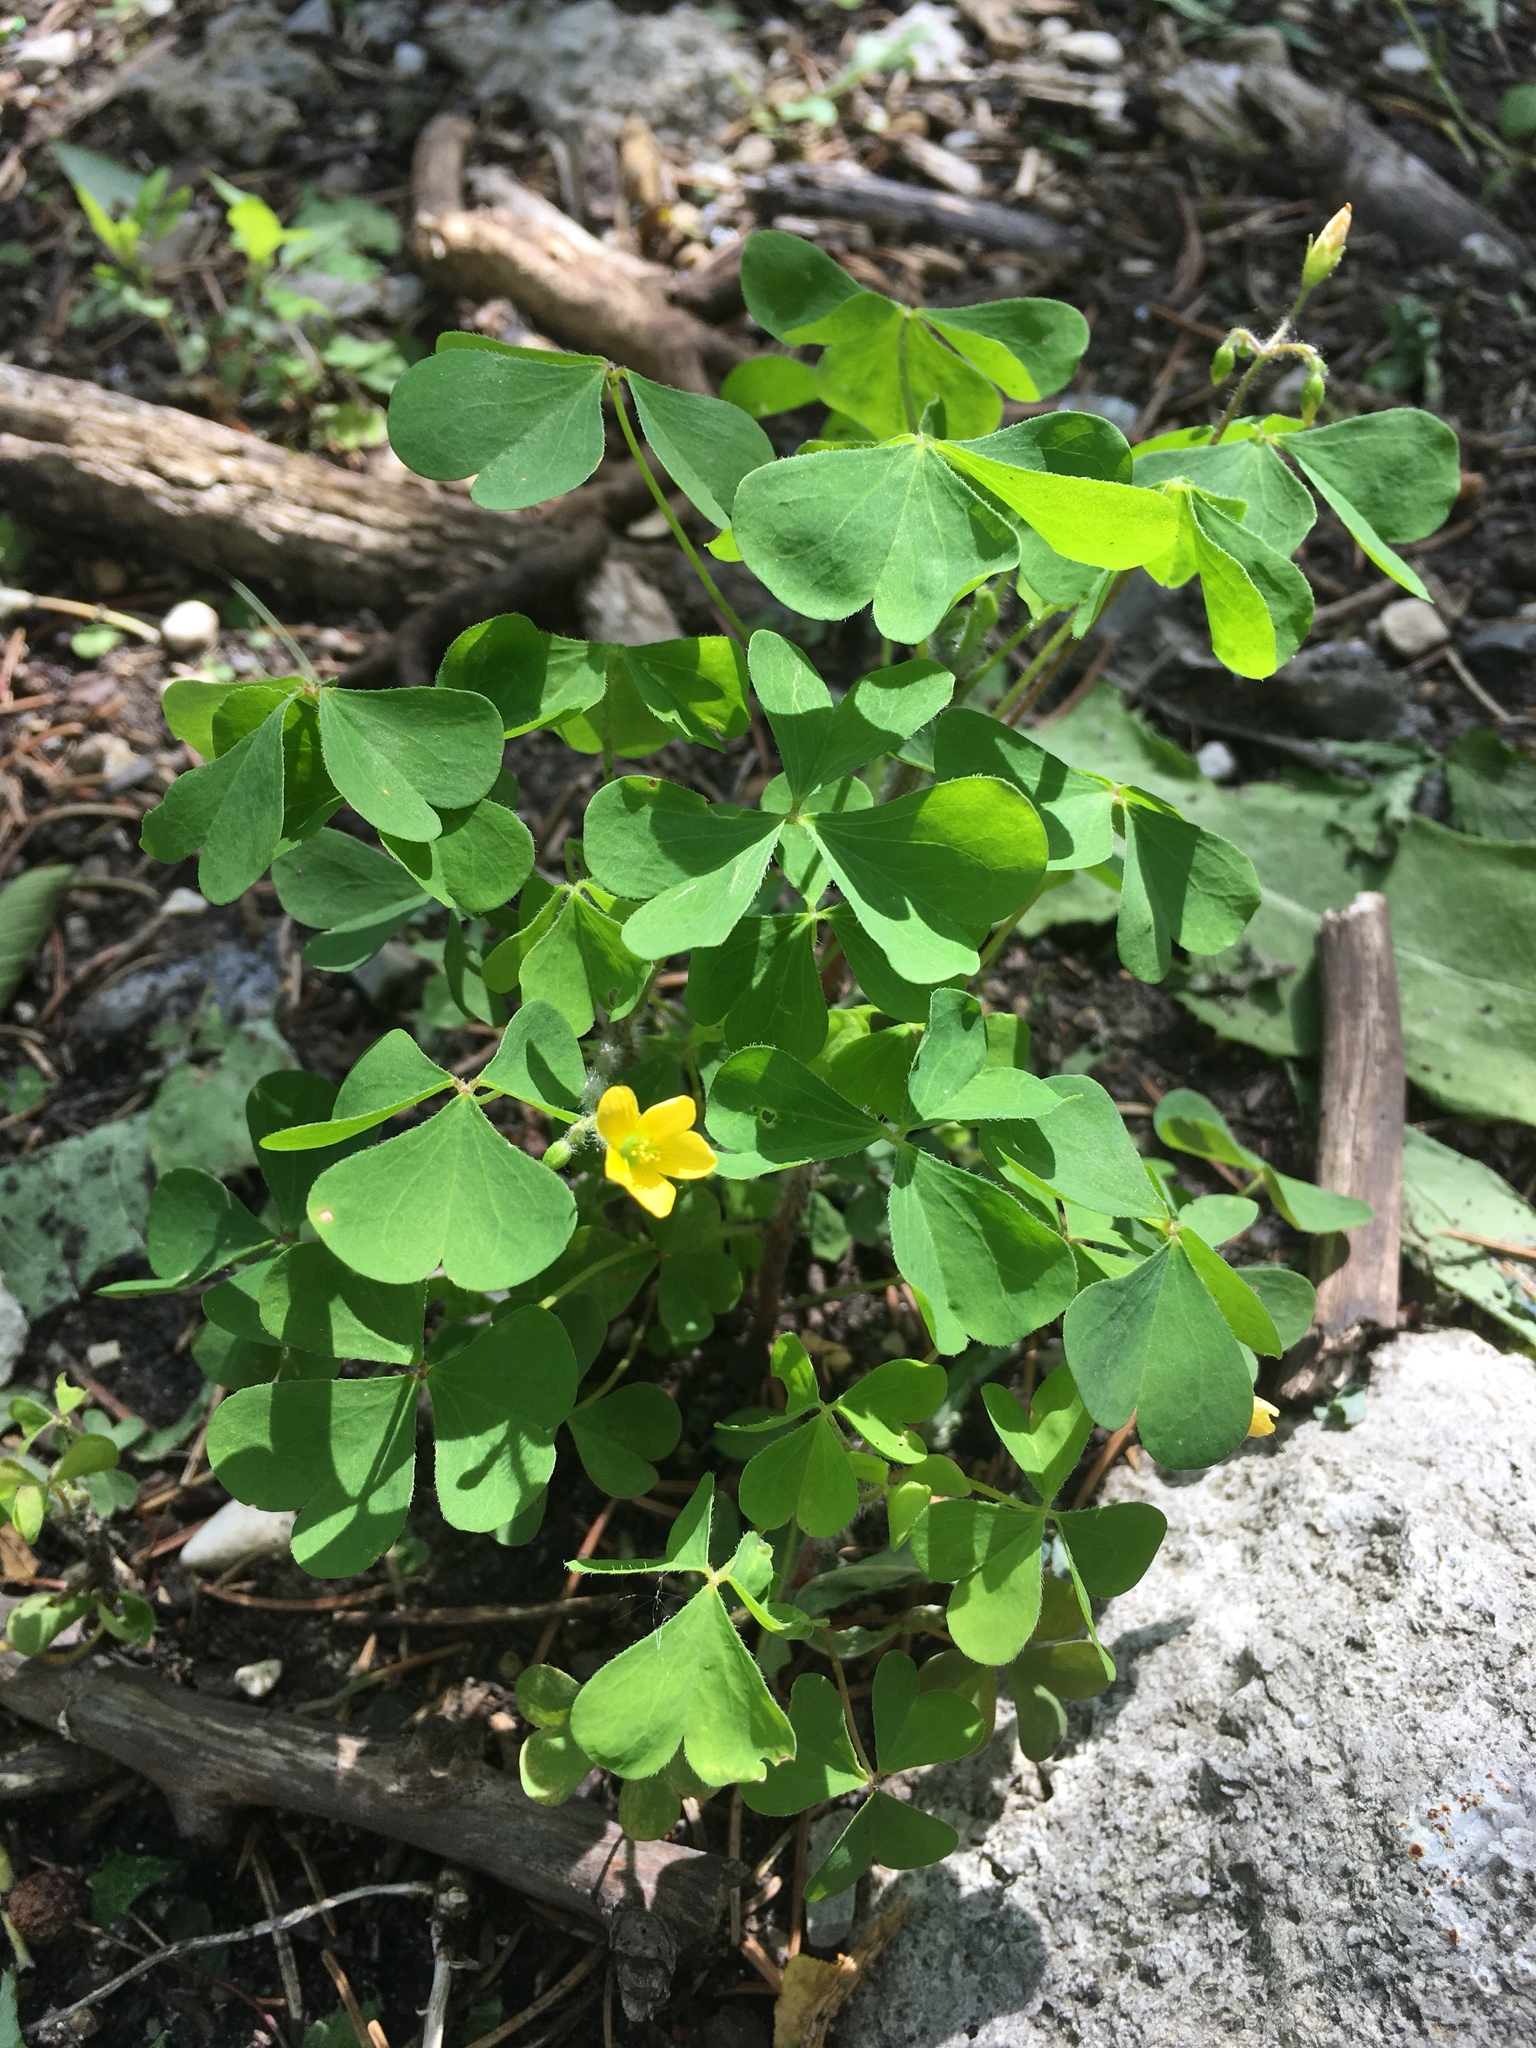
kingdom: Plantae
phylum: Tracheophyta
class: Magnoliopsida
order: Oxalidales
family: Oxalidaceae
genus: Oxalis
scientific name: Oxalis stricta
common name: Upright yellow-sorrel
